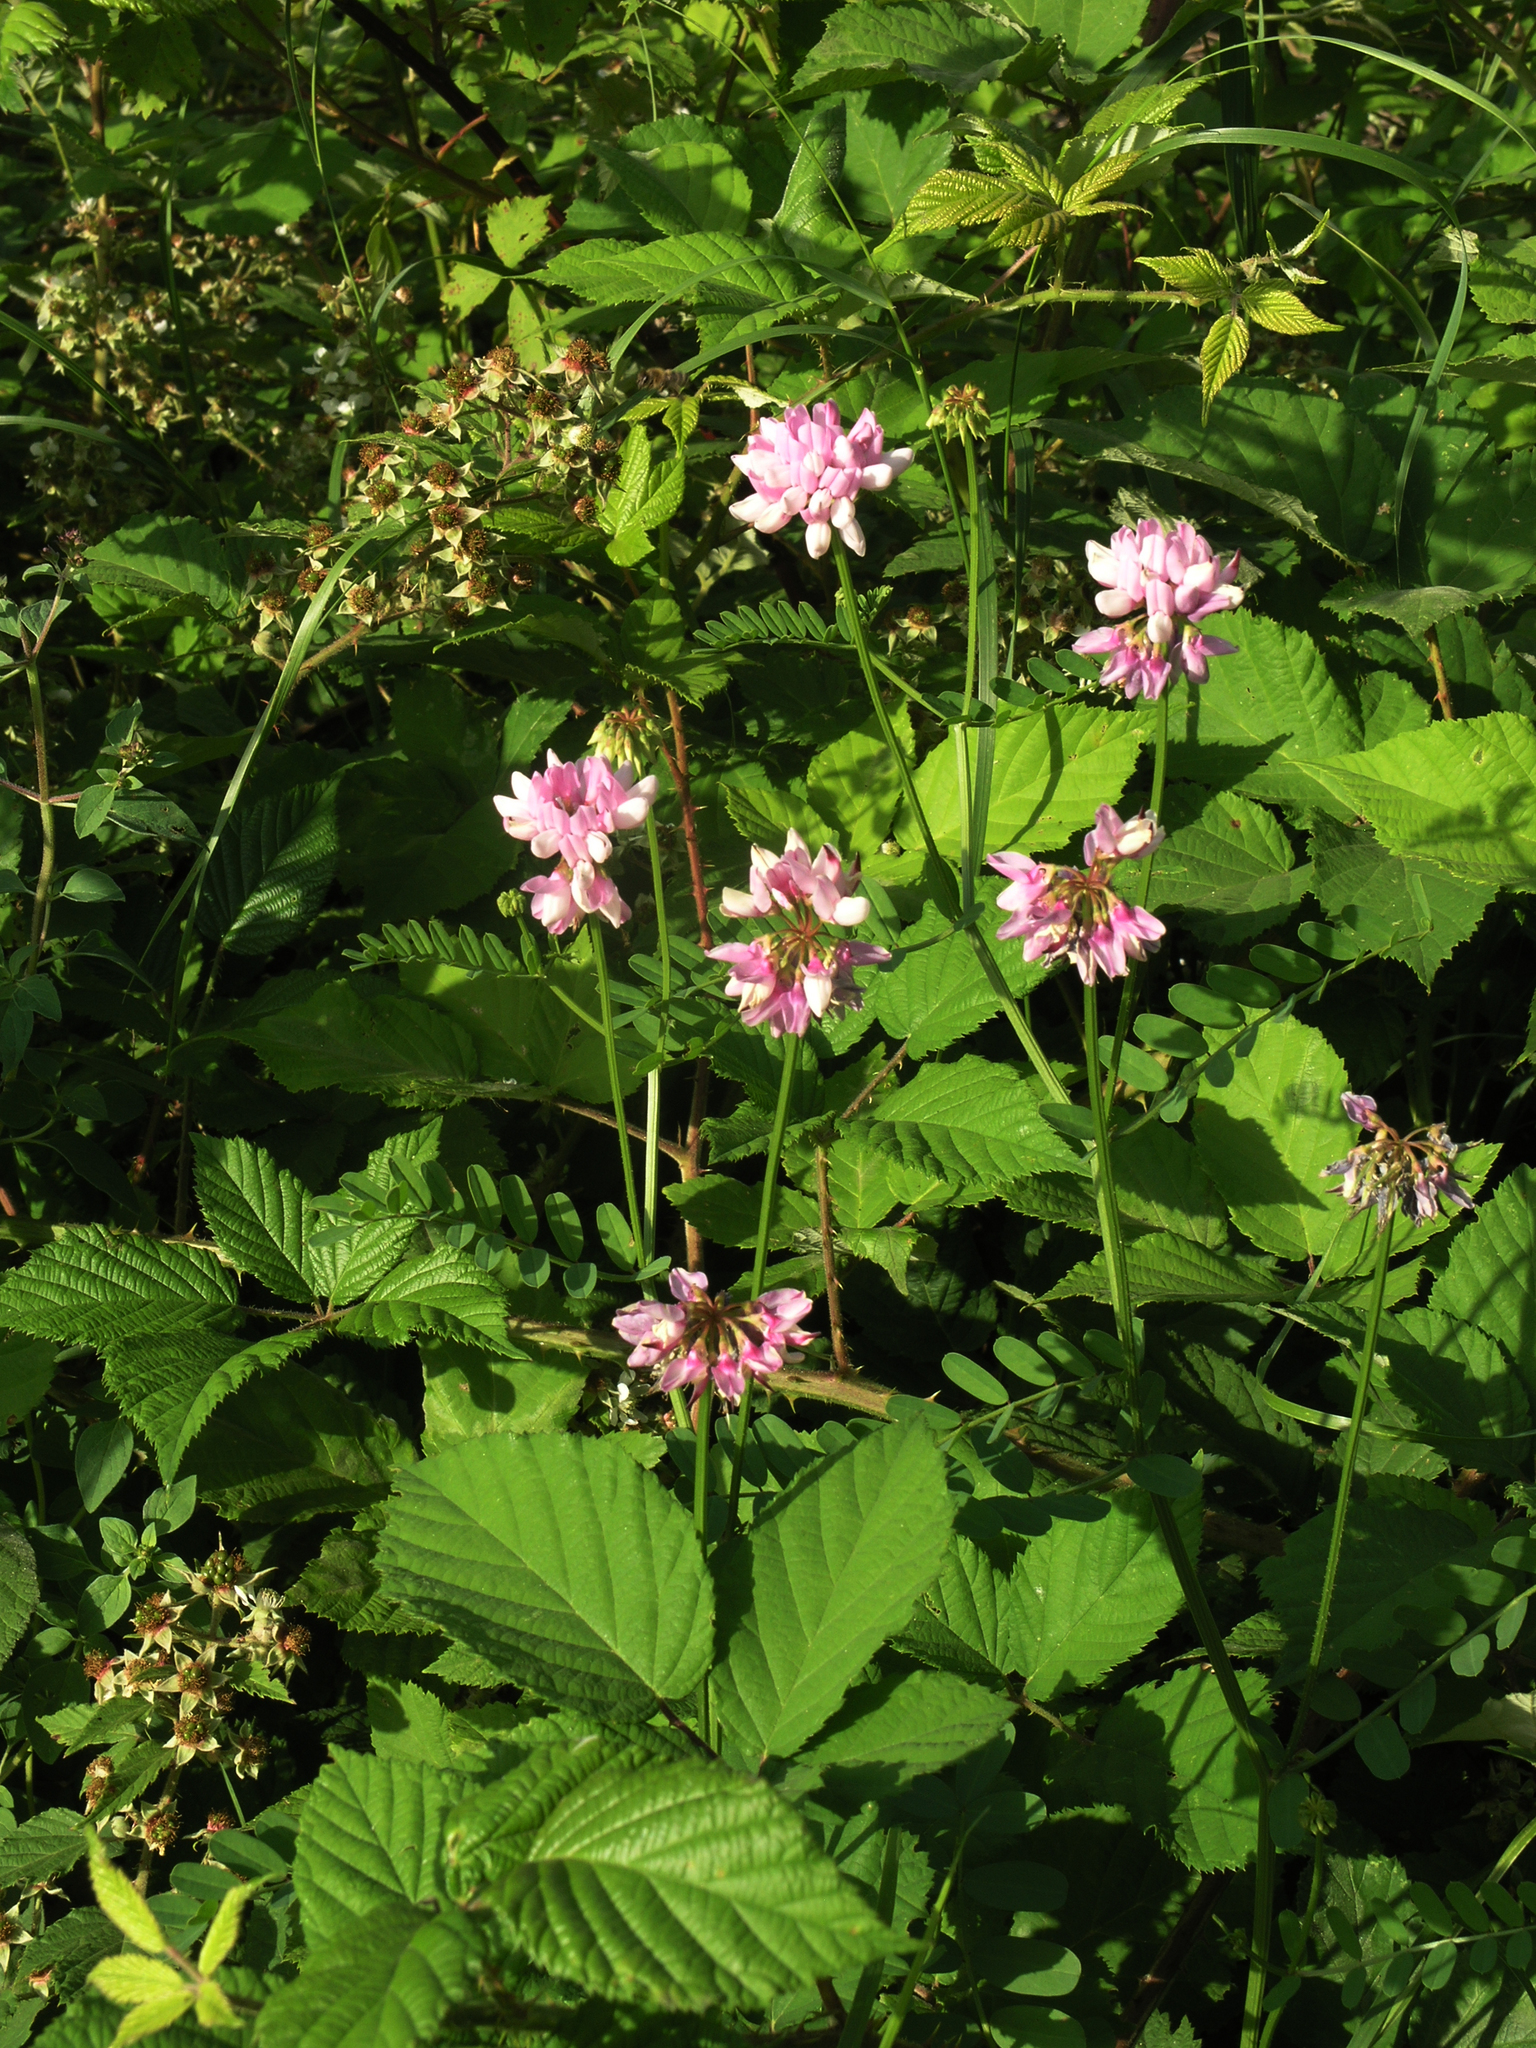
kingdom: Plantae
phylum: Tracheophyta
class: Magnoliopsida
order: Fabales
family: Fabaceae
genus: Coronilla
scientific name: Coronilla varia
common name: Crownvetch
